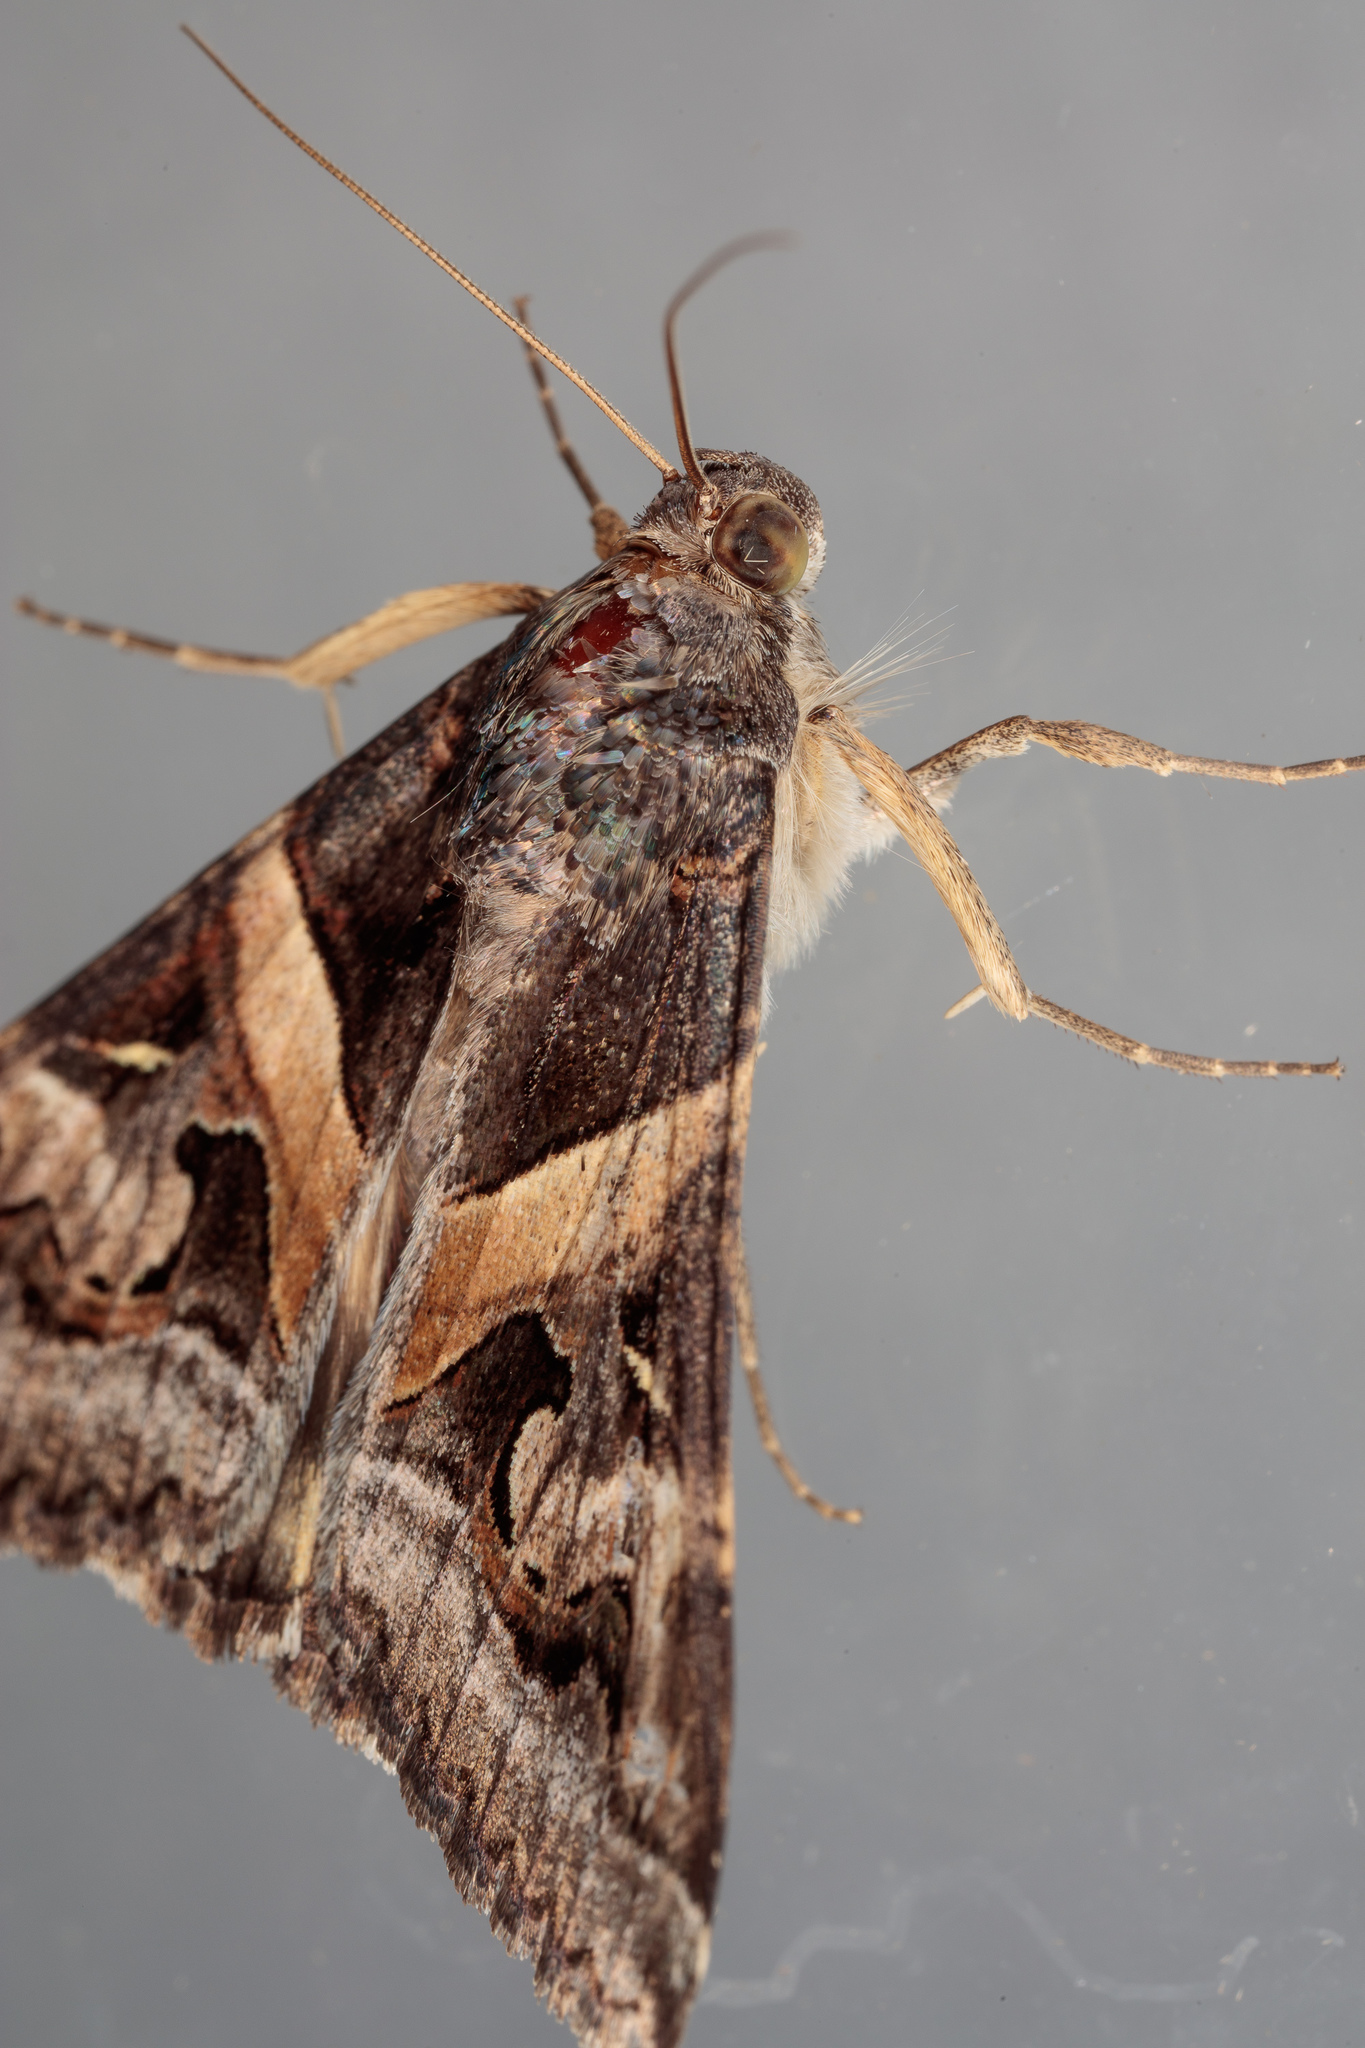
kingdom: Animalia
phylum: Arthropoda
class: Insecta
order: Lepidoptera
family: Erebidae
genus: Melipotis
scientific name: Melipotis indomita
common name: Moth
